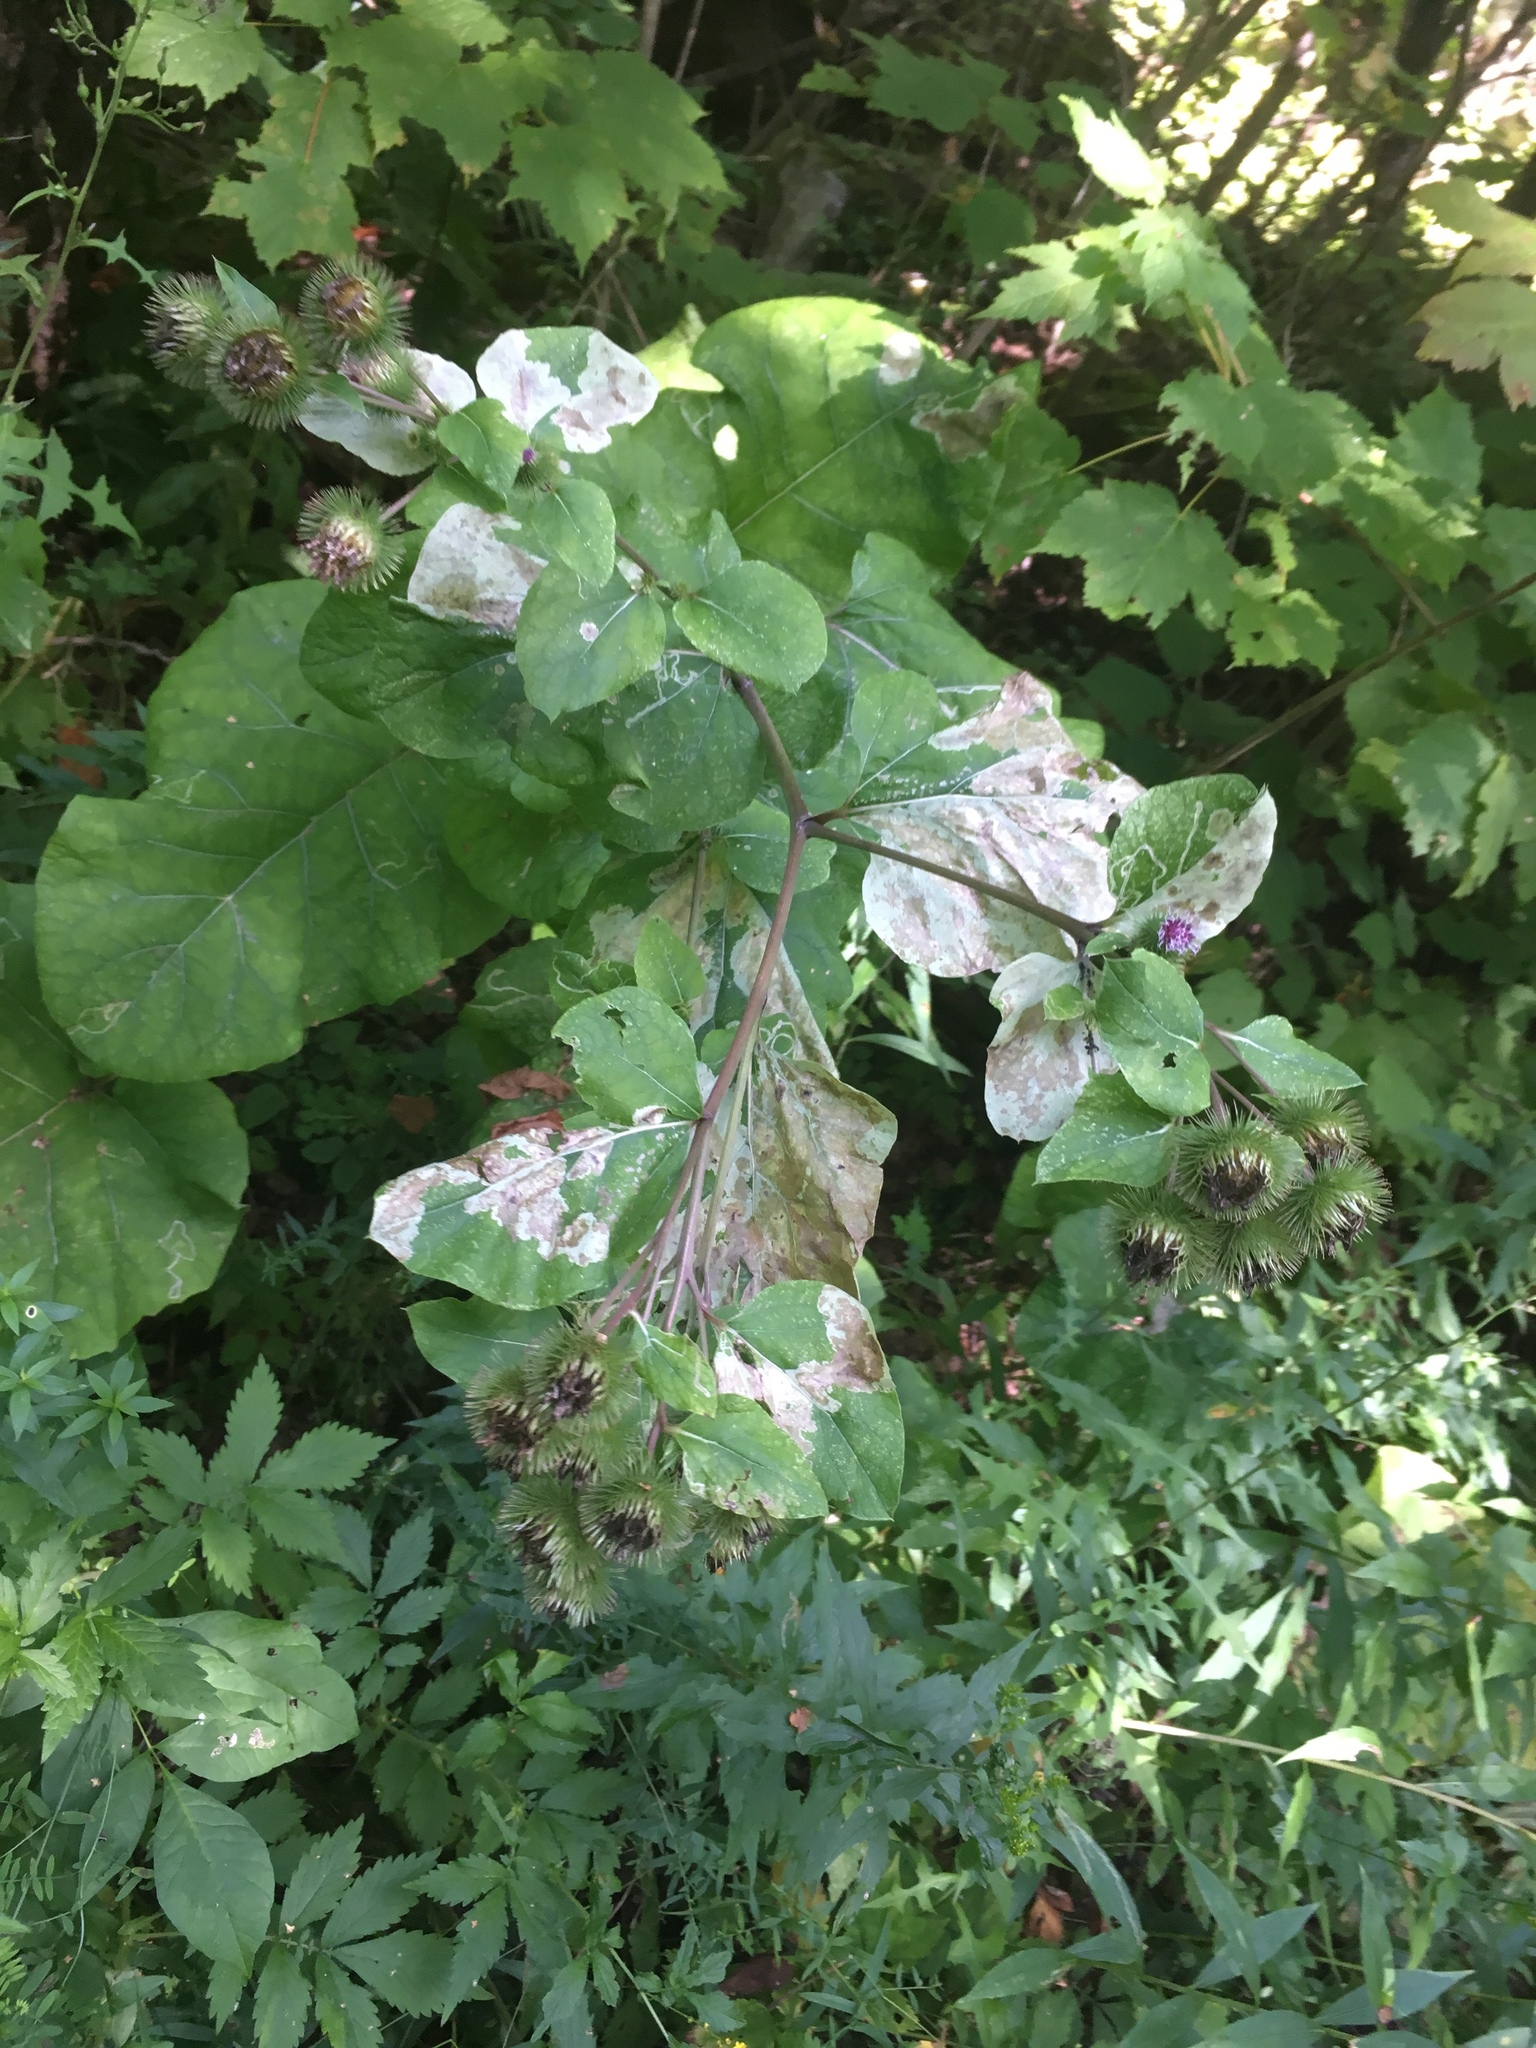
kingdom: Plantae
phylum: Tracheophyta
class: Magnoliopsida
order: Asterales
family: Asteraceae
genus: Arctium
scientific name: Arctium lappa
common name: Greater burdock
